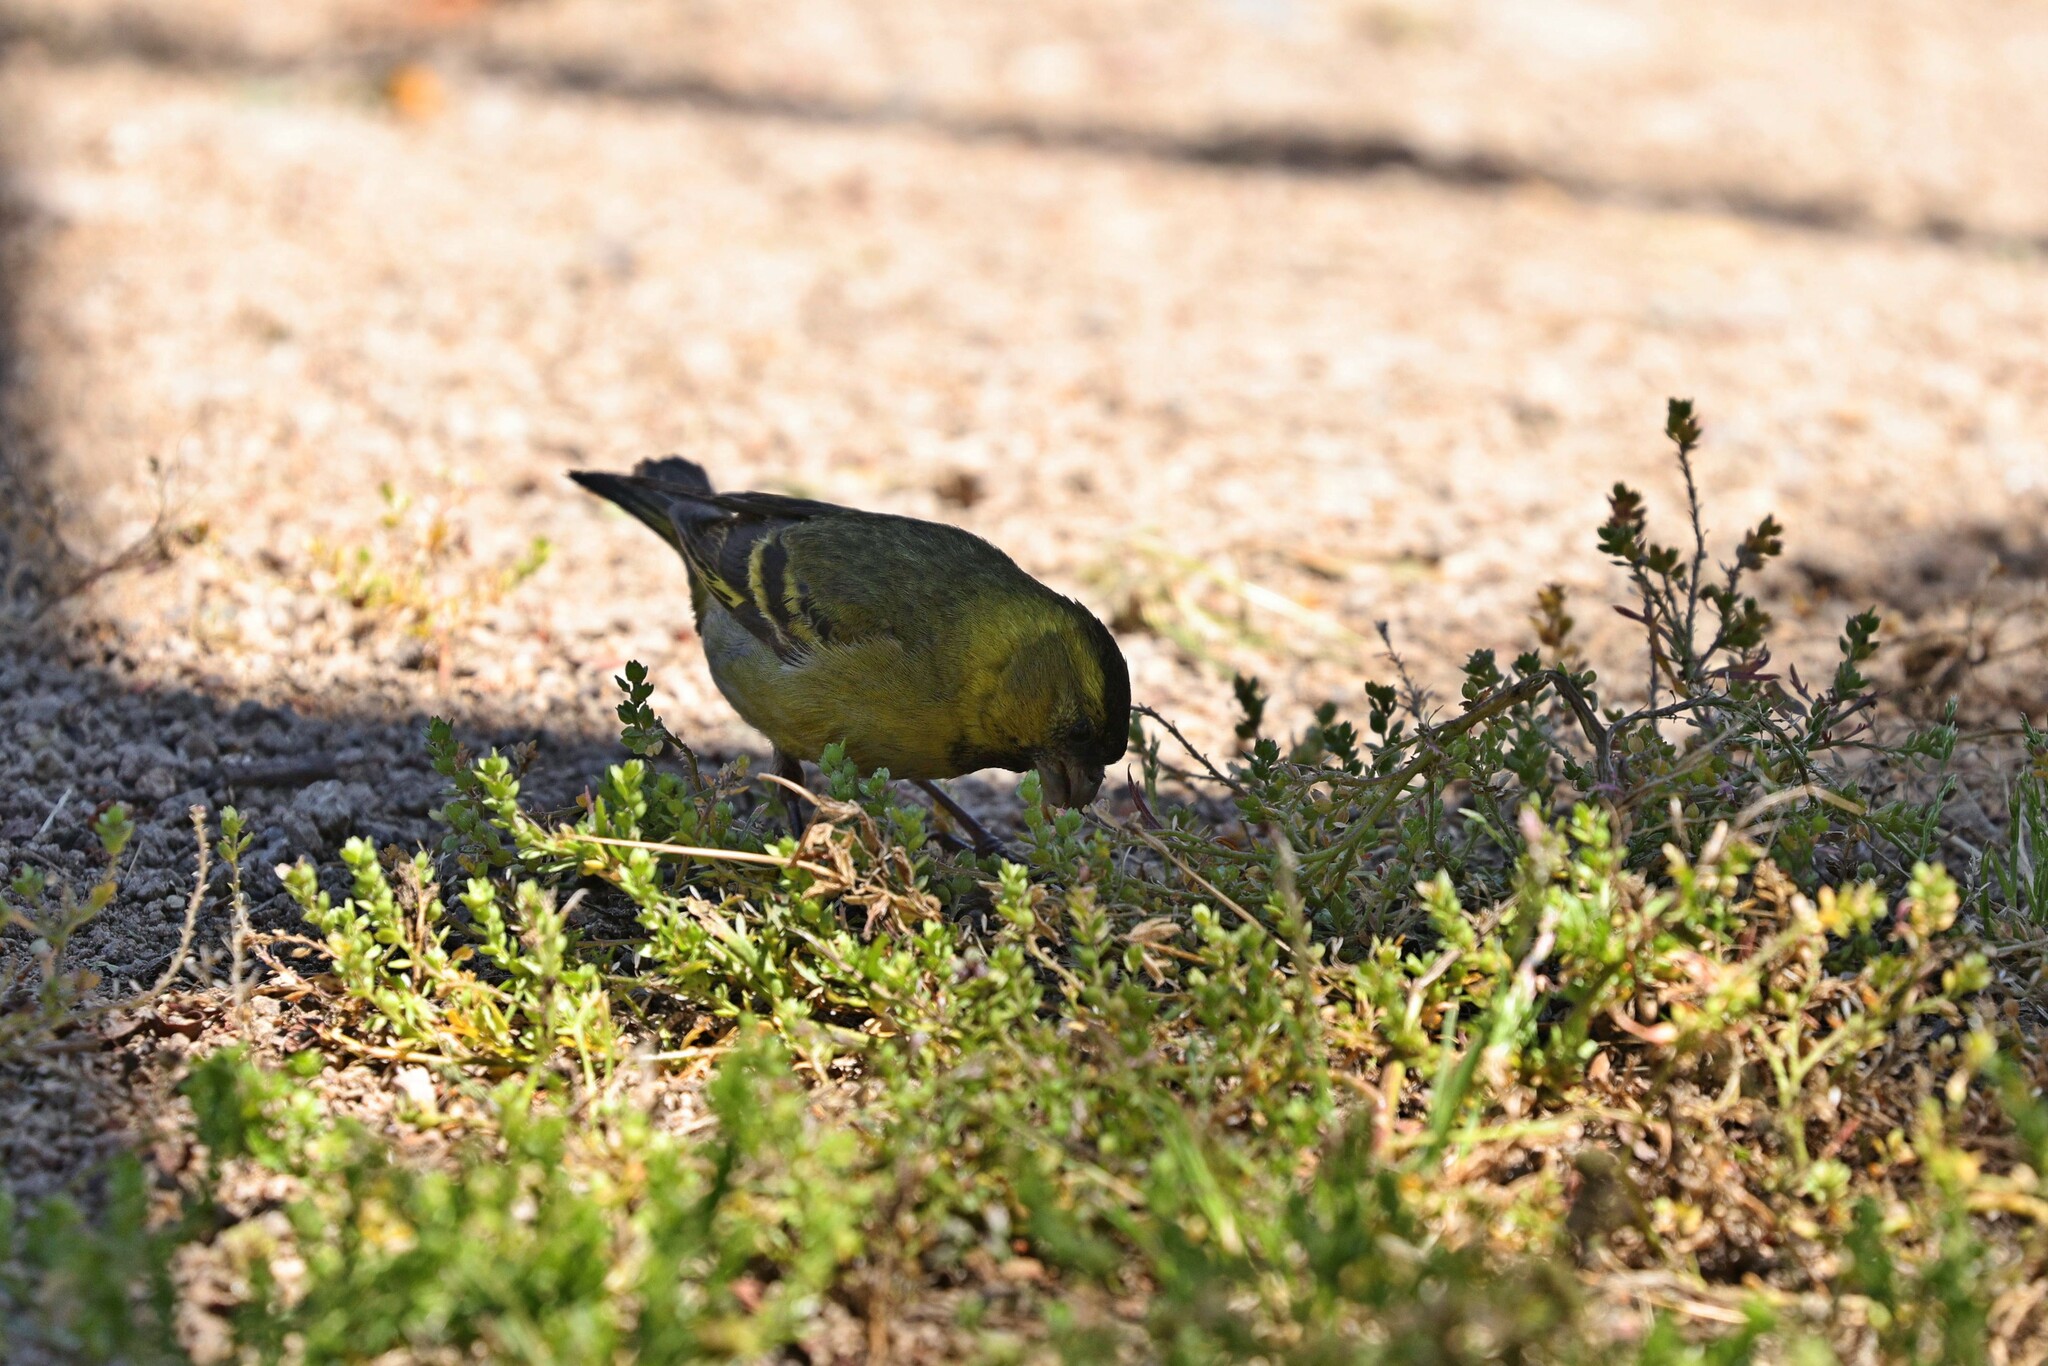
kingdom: Animalia
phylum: Chordata
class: Aves
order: Passeriformes
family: Fringillidae
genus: Spinus
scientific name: Spinus barbatus
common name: Black-chinned siskin
